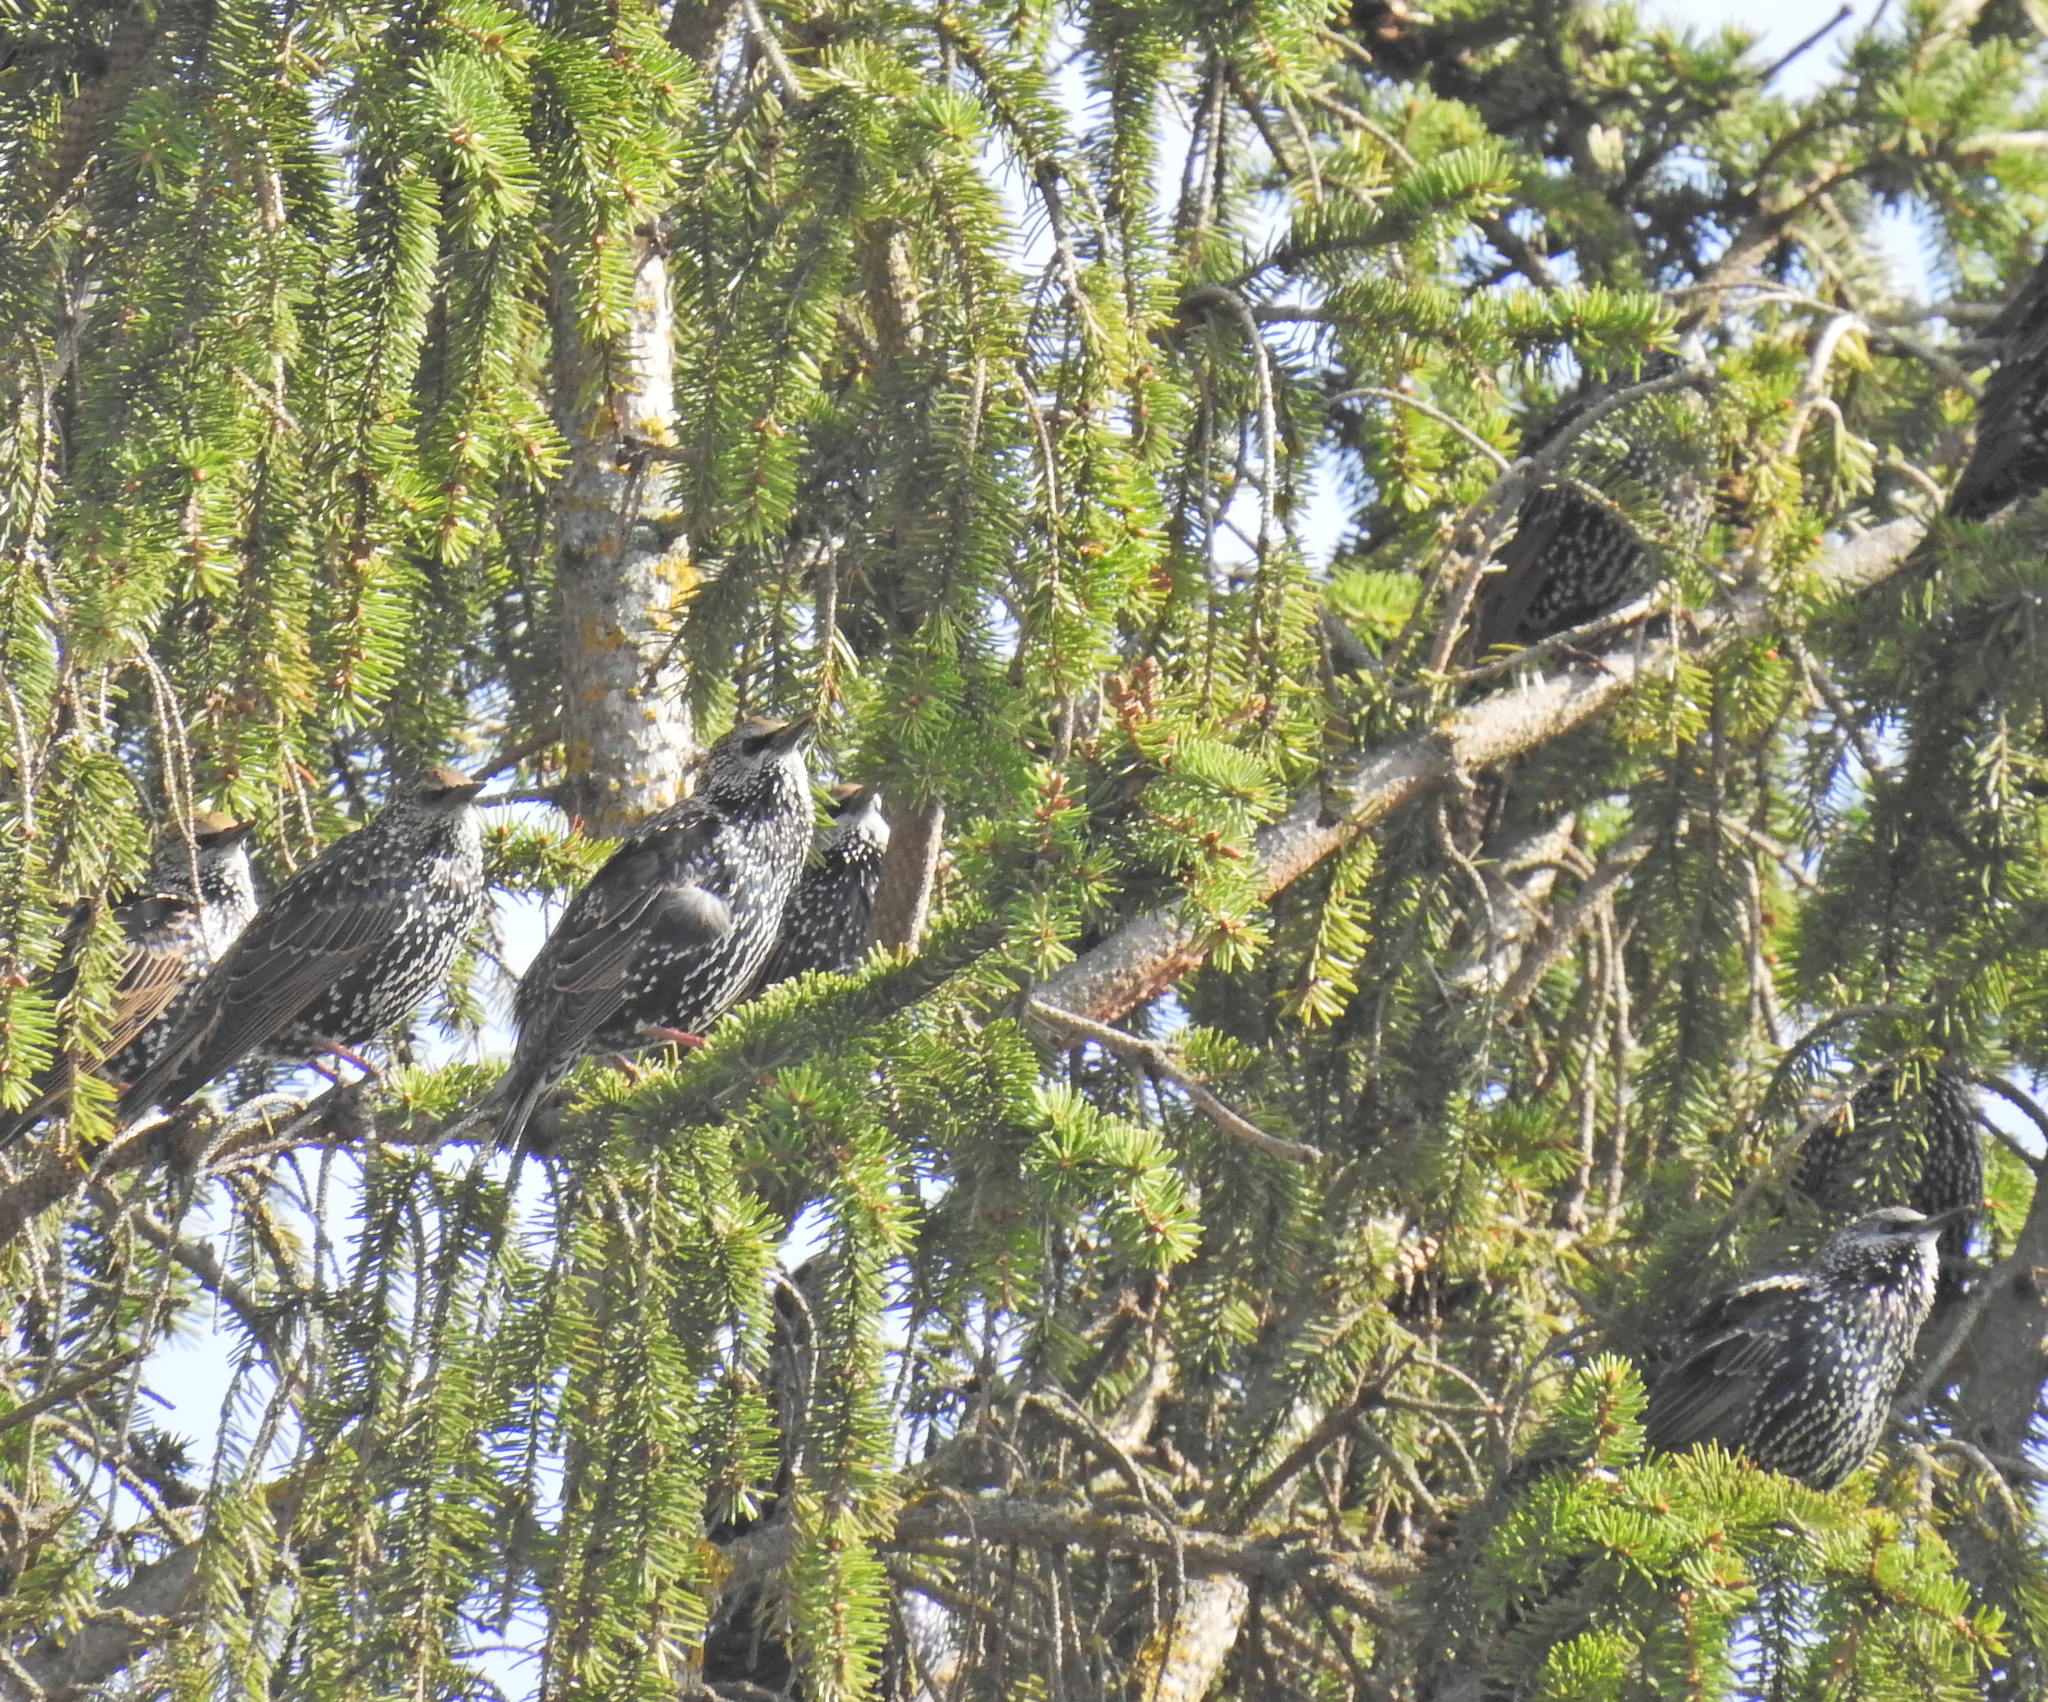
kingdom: Animalia
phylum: Chordata
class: Aves
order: Passeriformes
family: Sturnidae
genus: Sturnus
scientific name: Sturnus vulgaris
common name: Common starling
